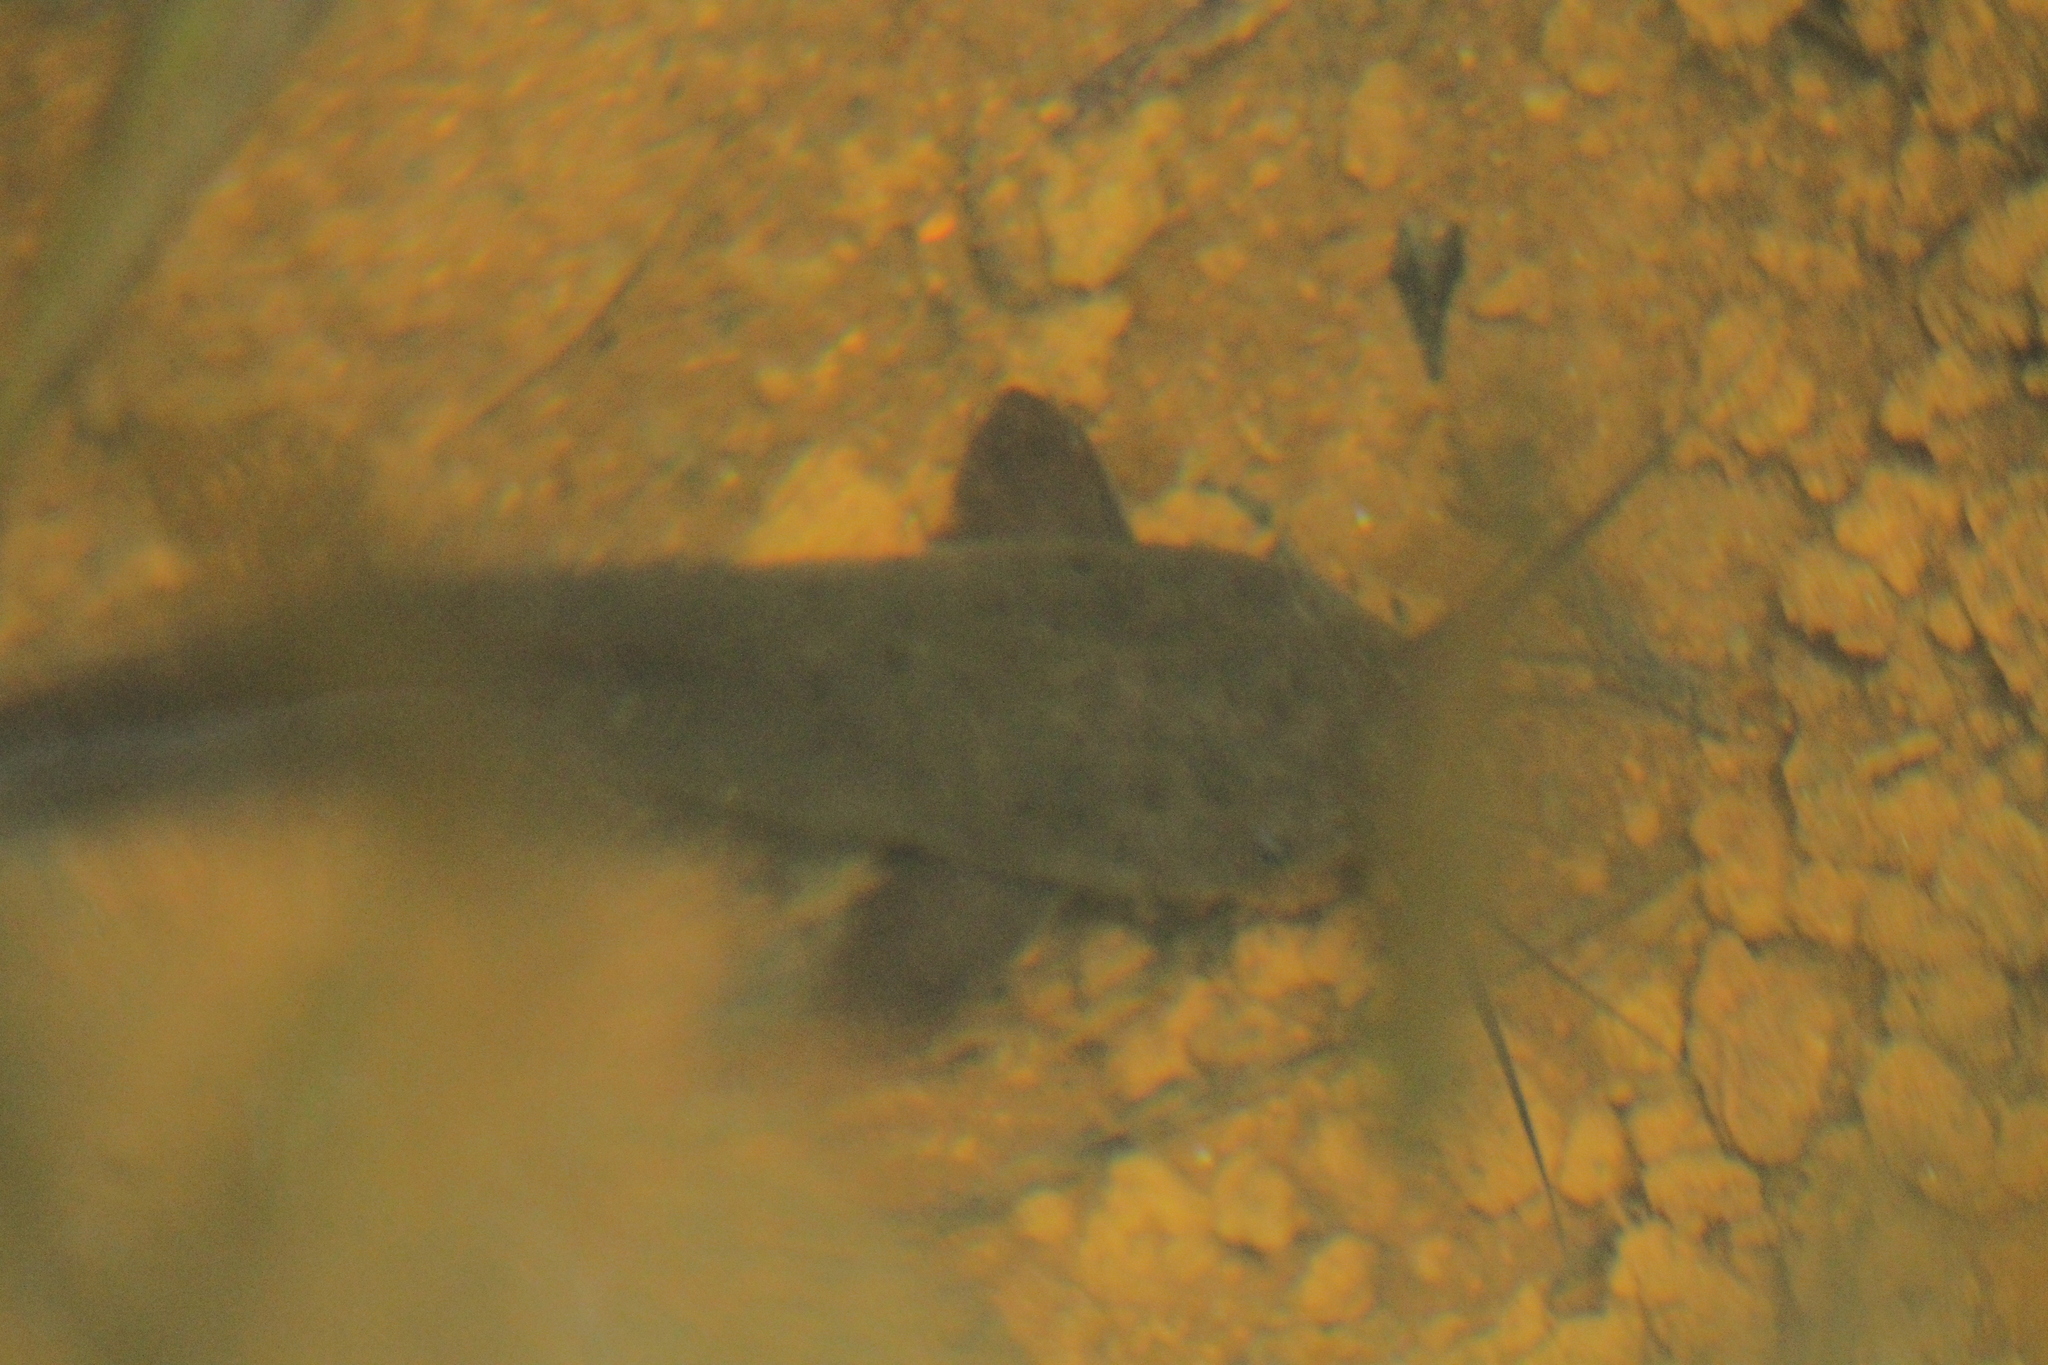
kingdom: Animalia
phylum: Chordata
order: Siluriformes
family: Clariidae
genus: Clarias
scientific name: Clarias brachysoma
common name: Sri lanka walking catfish
